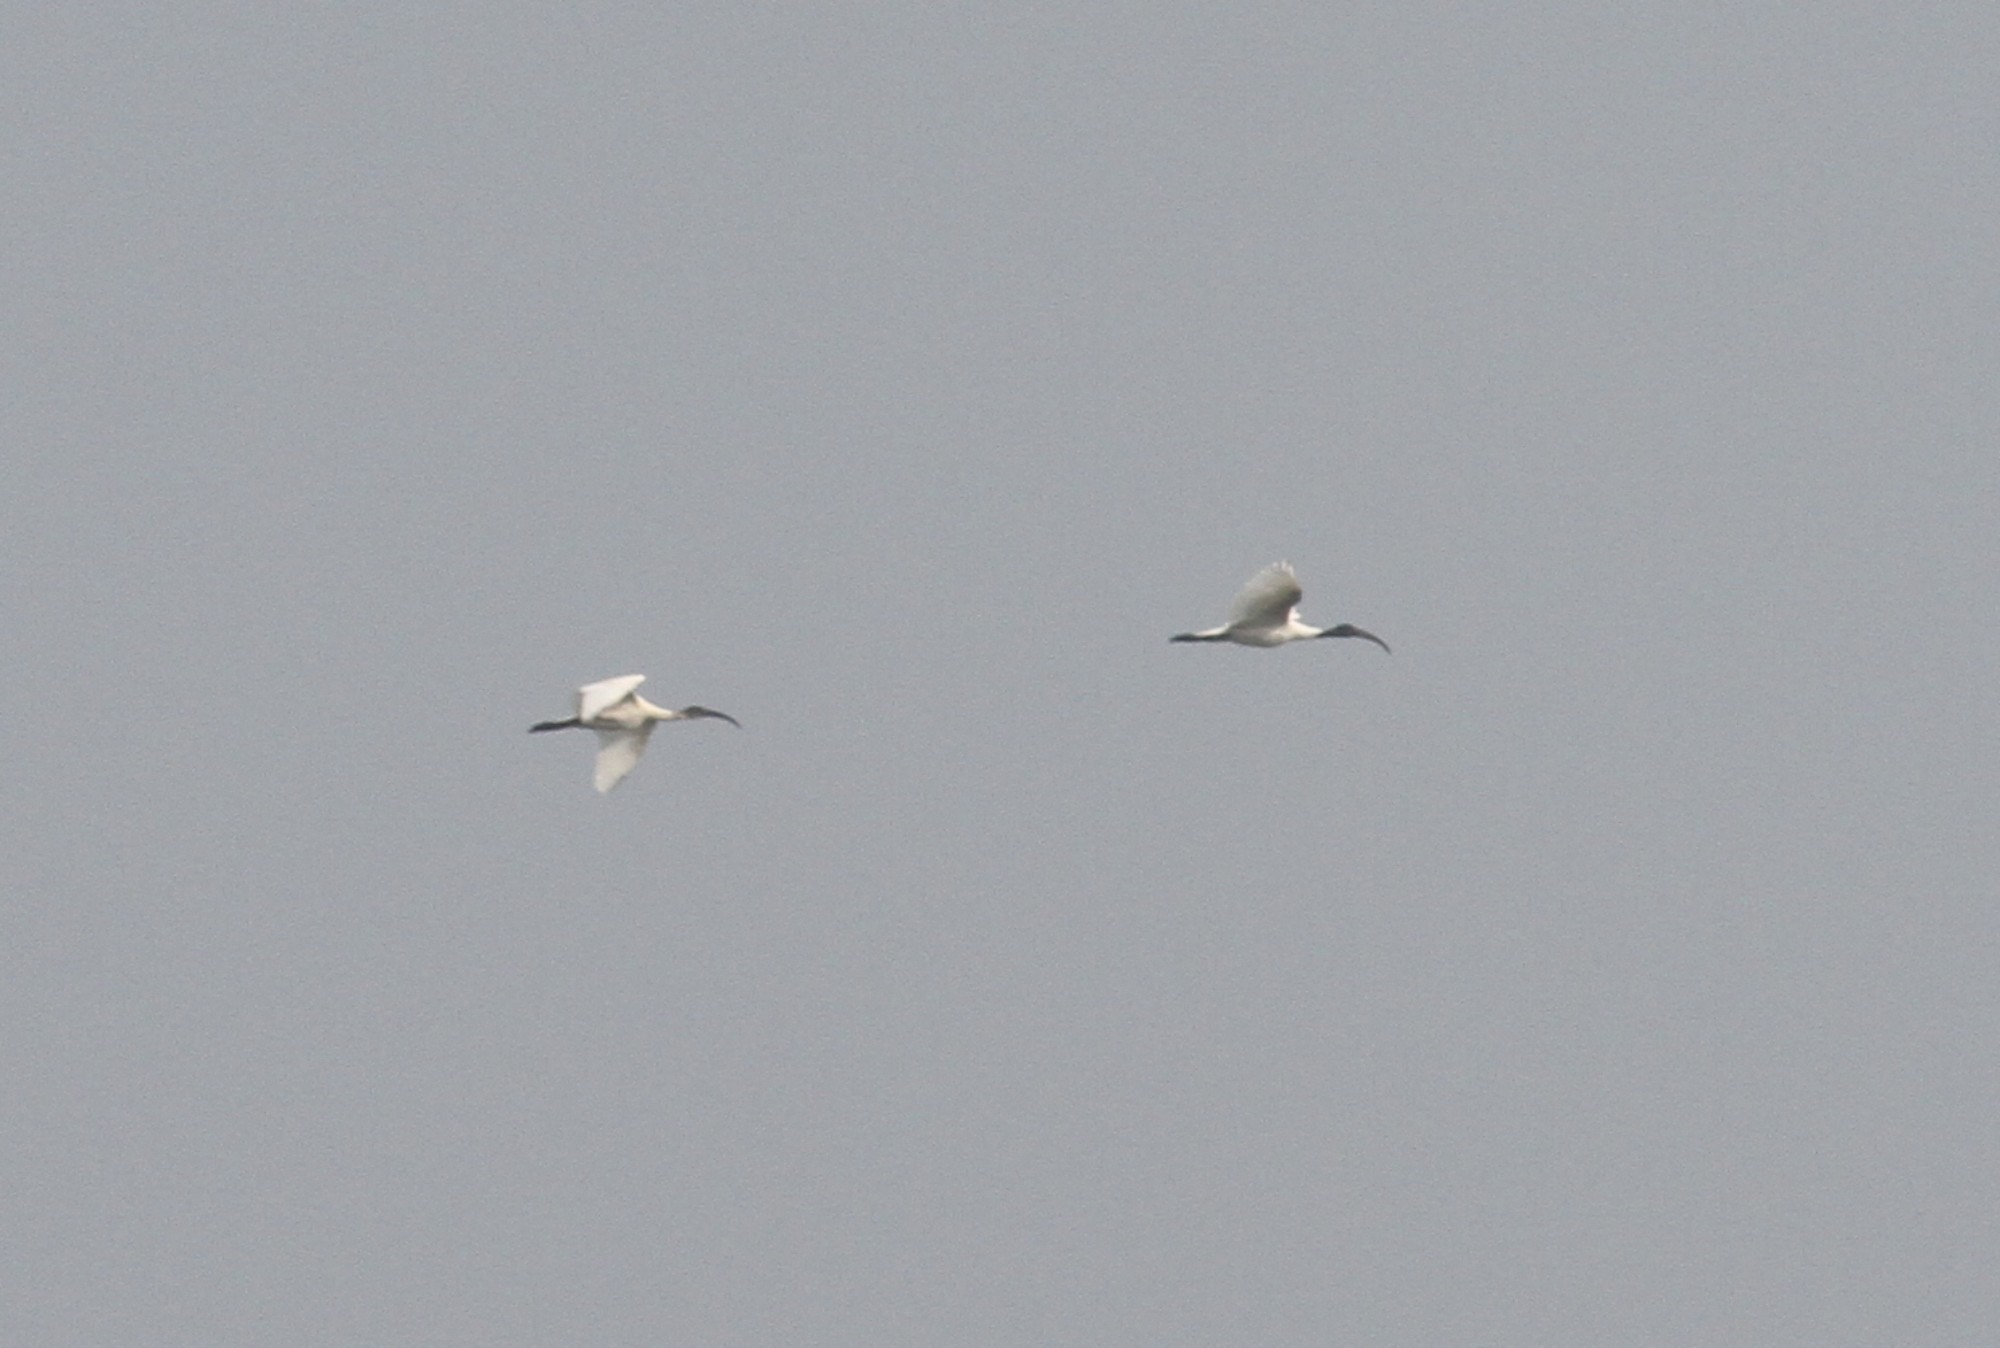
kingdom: Animalia
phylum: Chordata
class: Aves
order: Pelecaniformes
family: Threskiornithidae
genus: Threskiornis
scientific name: Threskiornis melanocephalus
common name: Black-headed ibis
